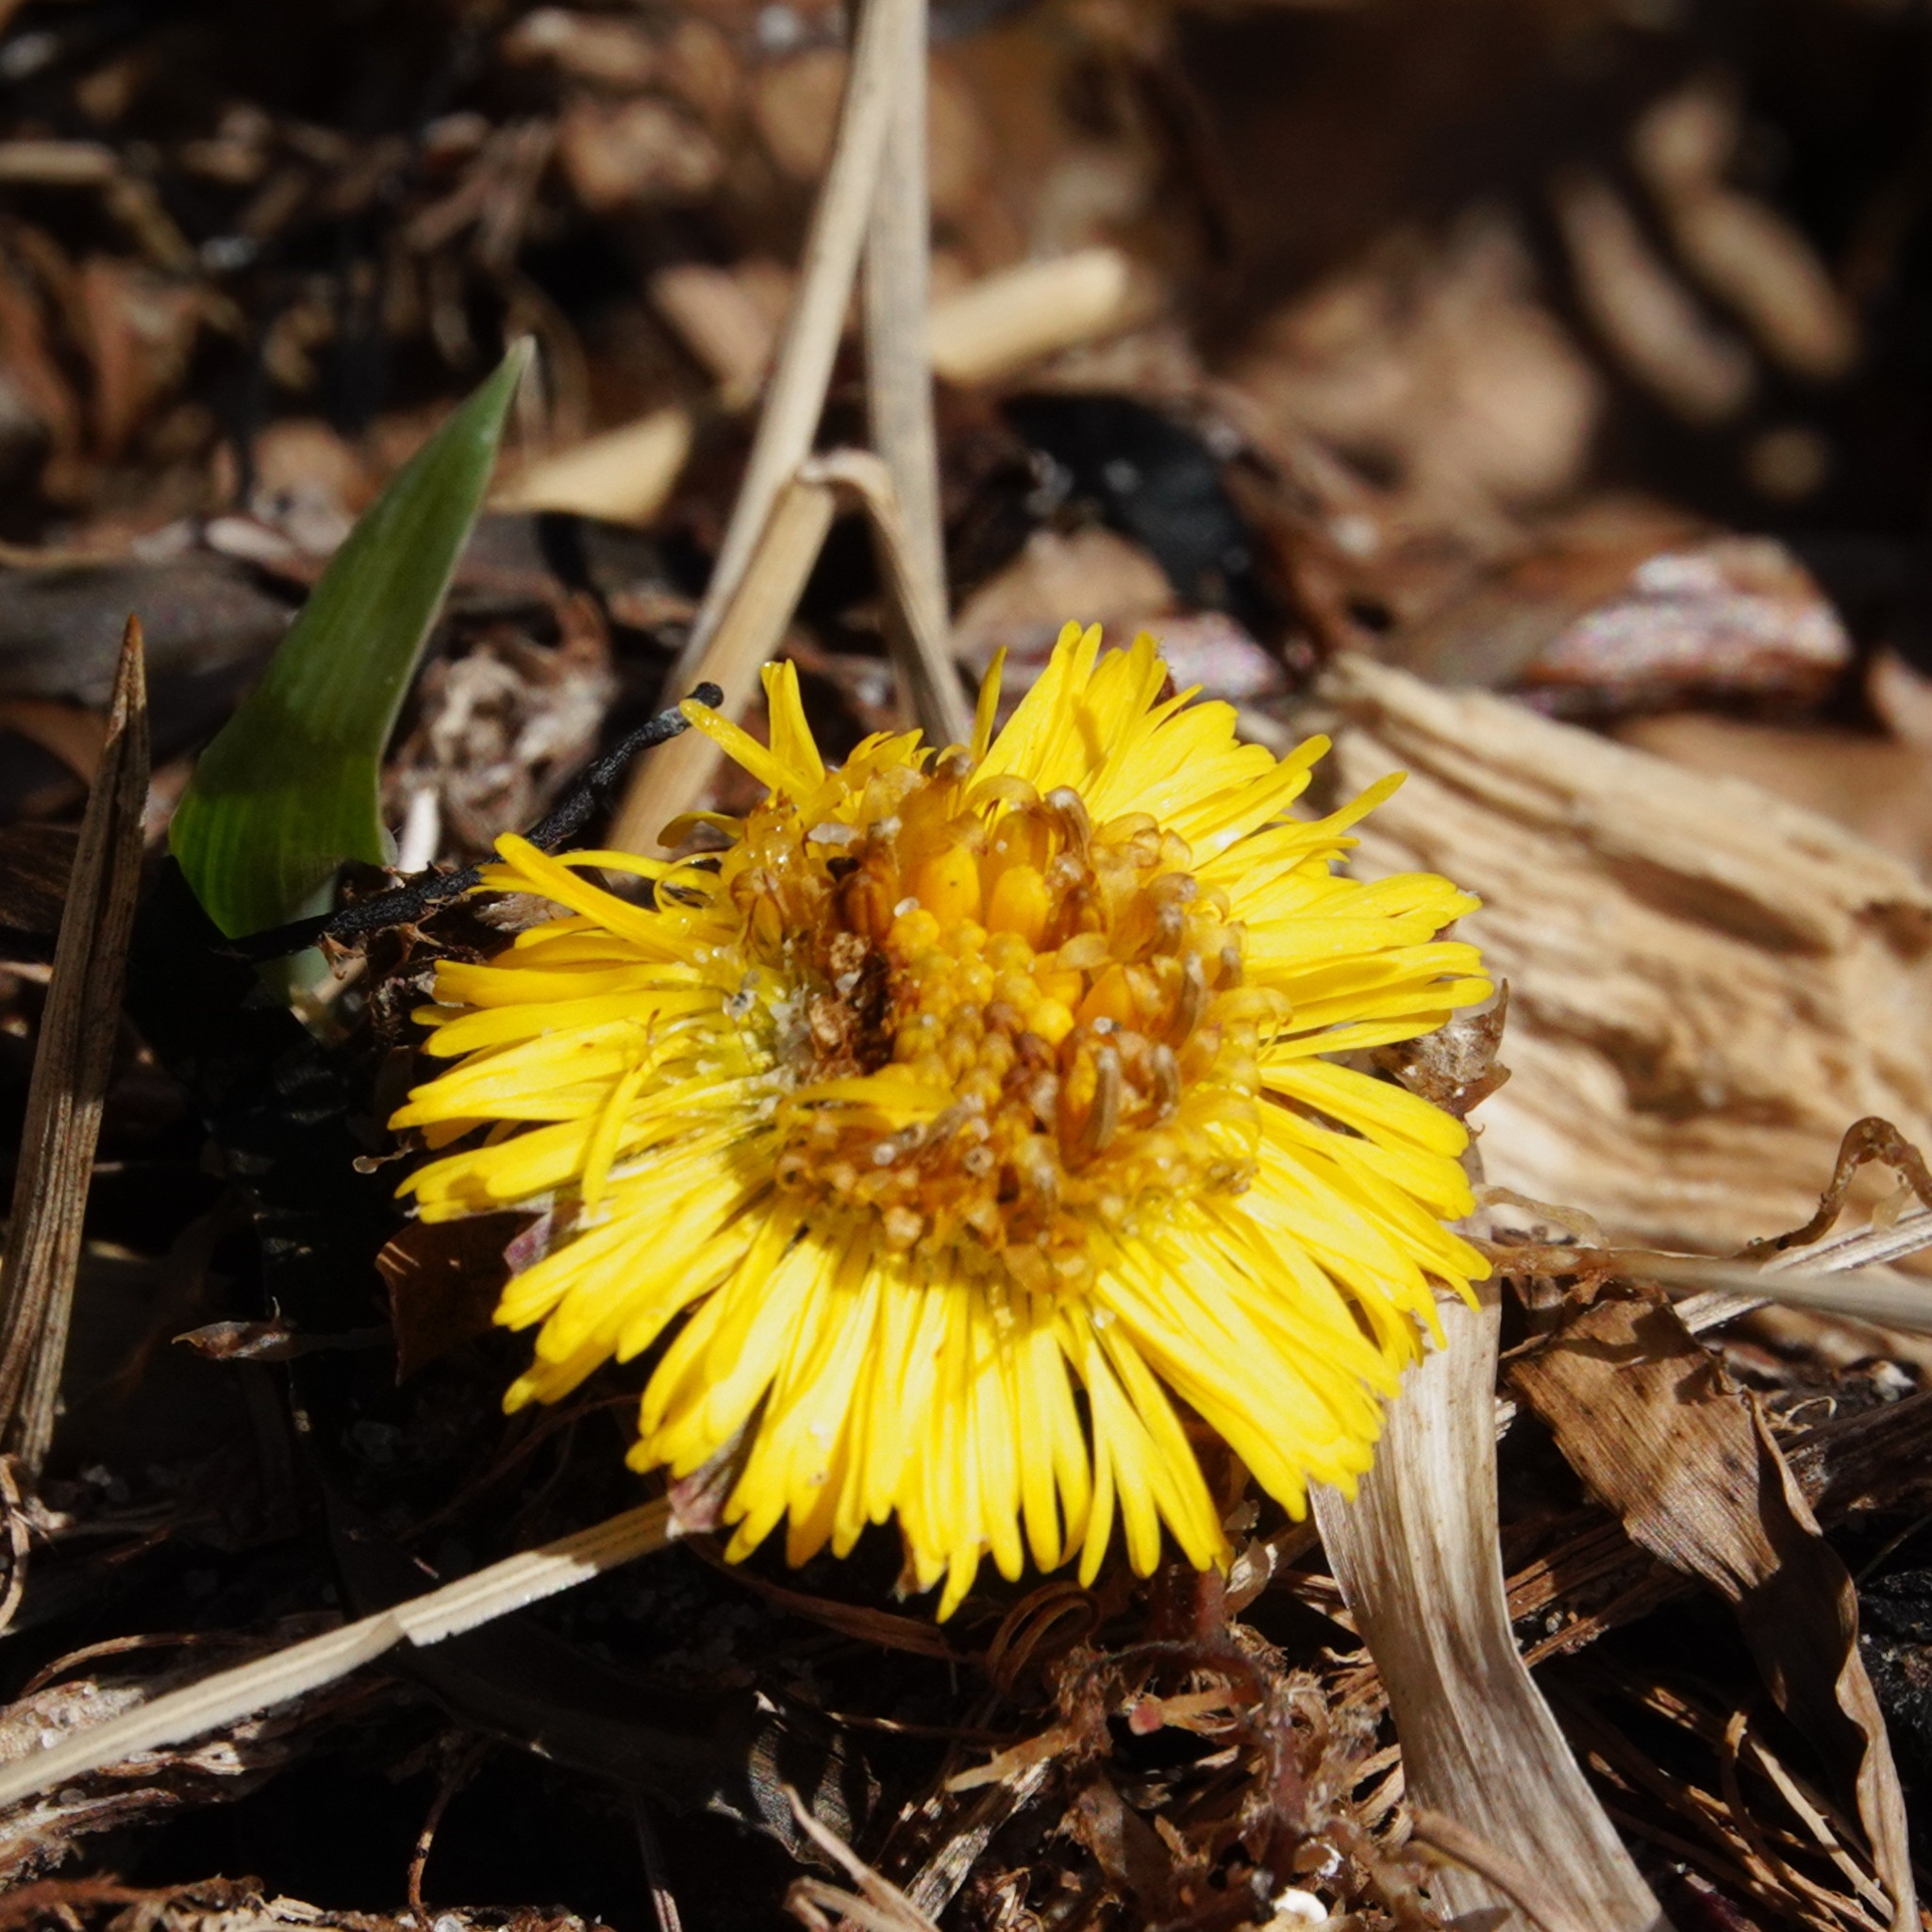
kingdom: Plantae
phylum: Tracheophyta
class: Magnoliopsida
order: Asterales
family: Asteraceae
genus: Tussilago
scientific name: Tussilago farfara
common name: Coltsfoot
